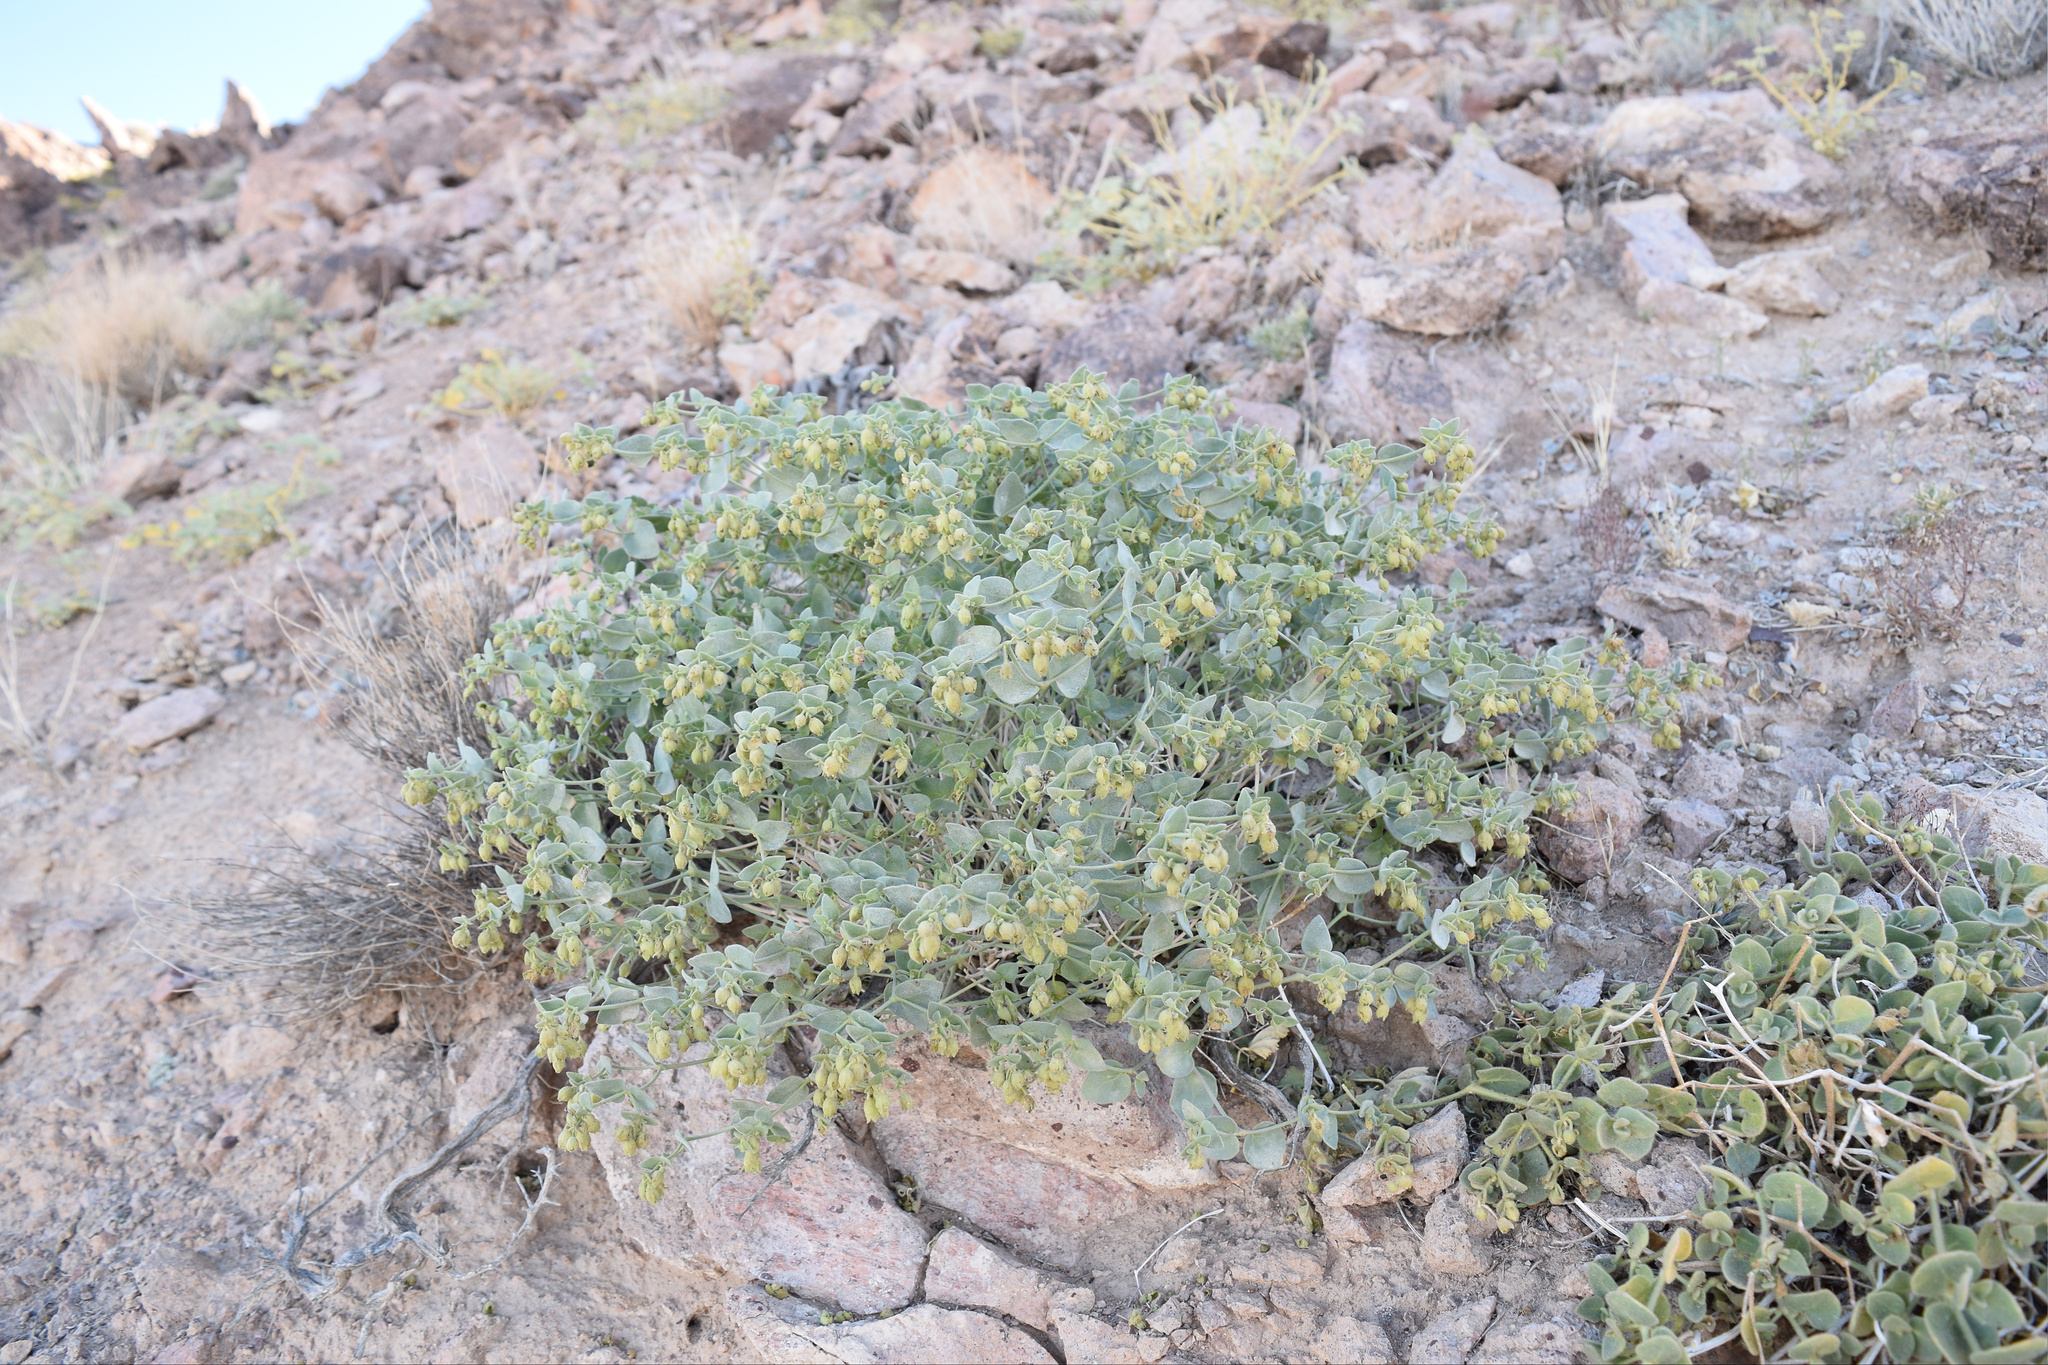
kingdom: Plantae
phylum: Tracheophyta
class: Magnoliopsida
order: Solanales
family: Solanaceae
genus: Physalis
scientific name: Physalis crassifolia
